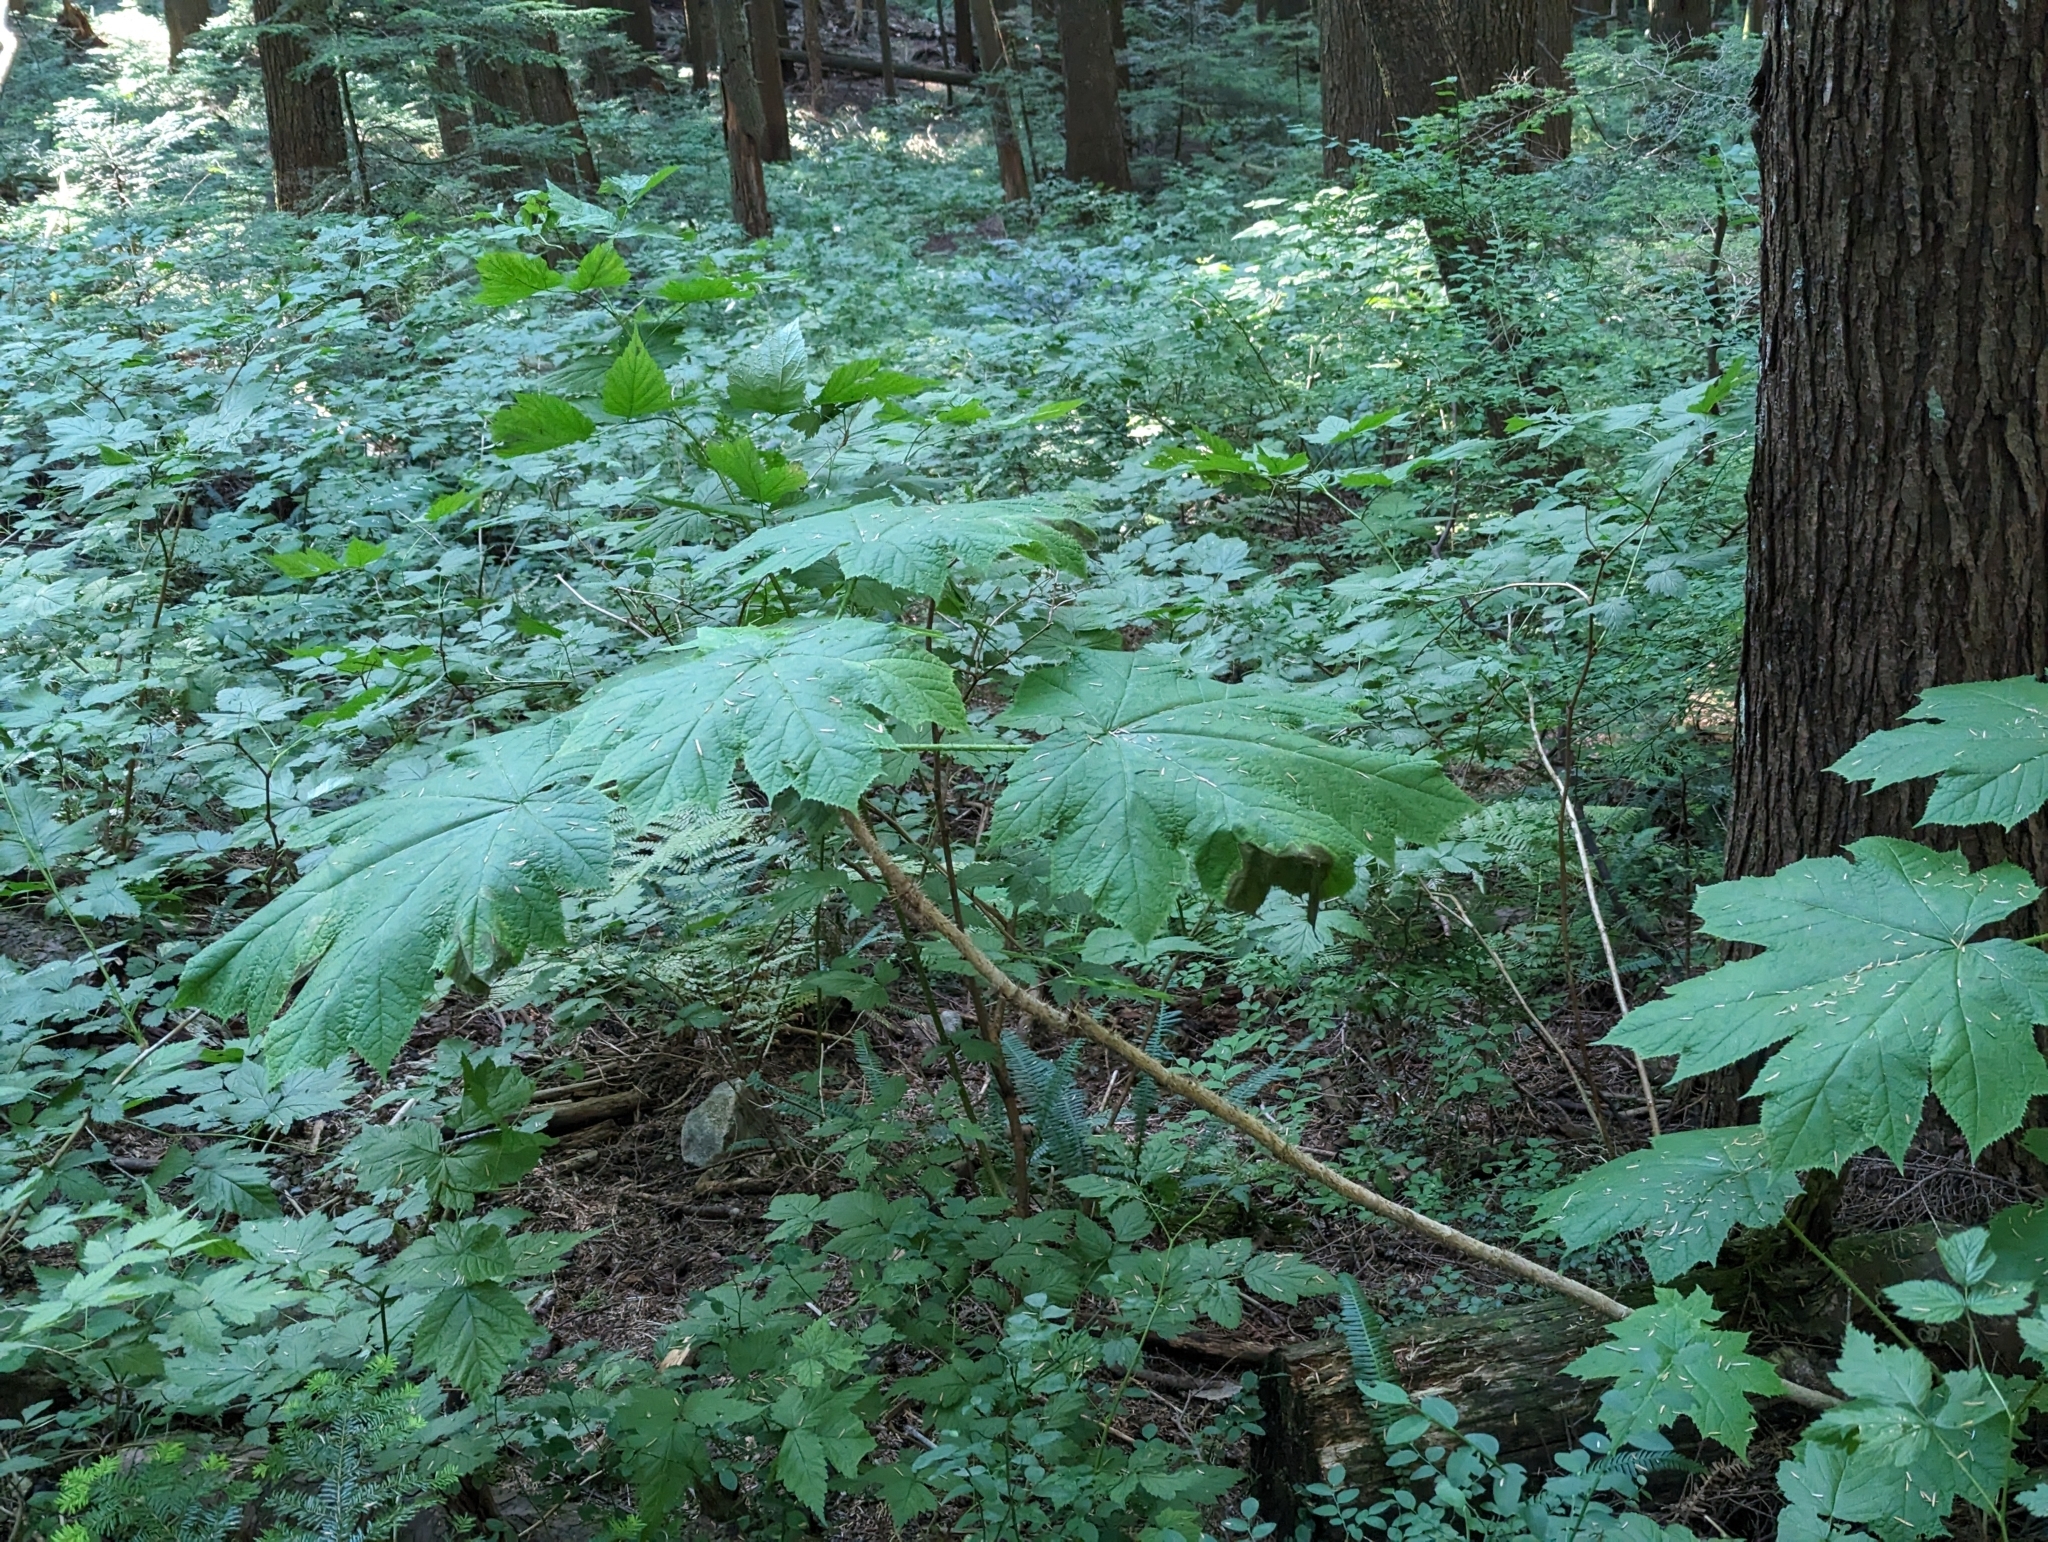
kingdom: Plantae
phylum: Tracheophyta
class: Magnoliopsida
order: Apiales
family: Araliaceae
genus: Oplopanax
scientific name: Oplopanax horridus
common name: Devil's walking-stick
